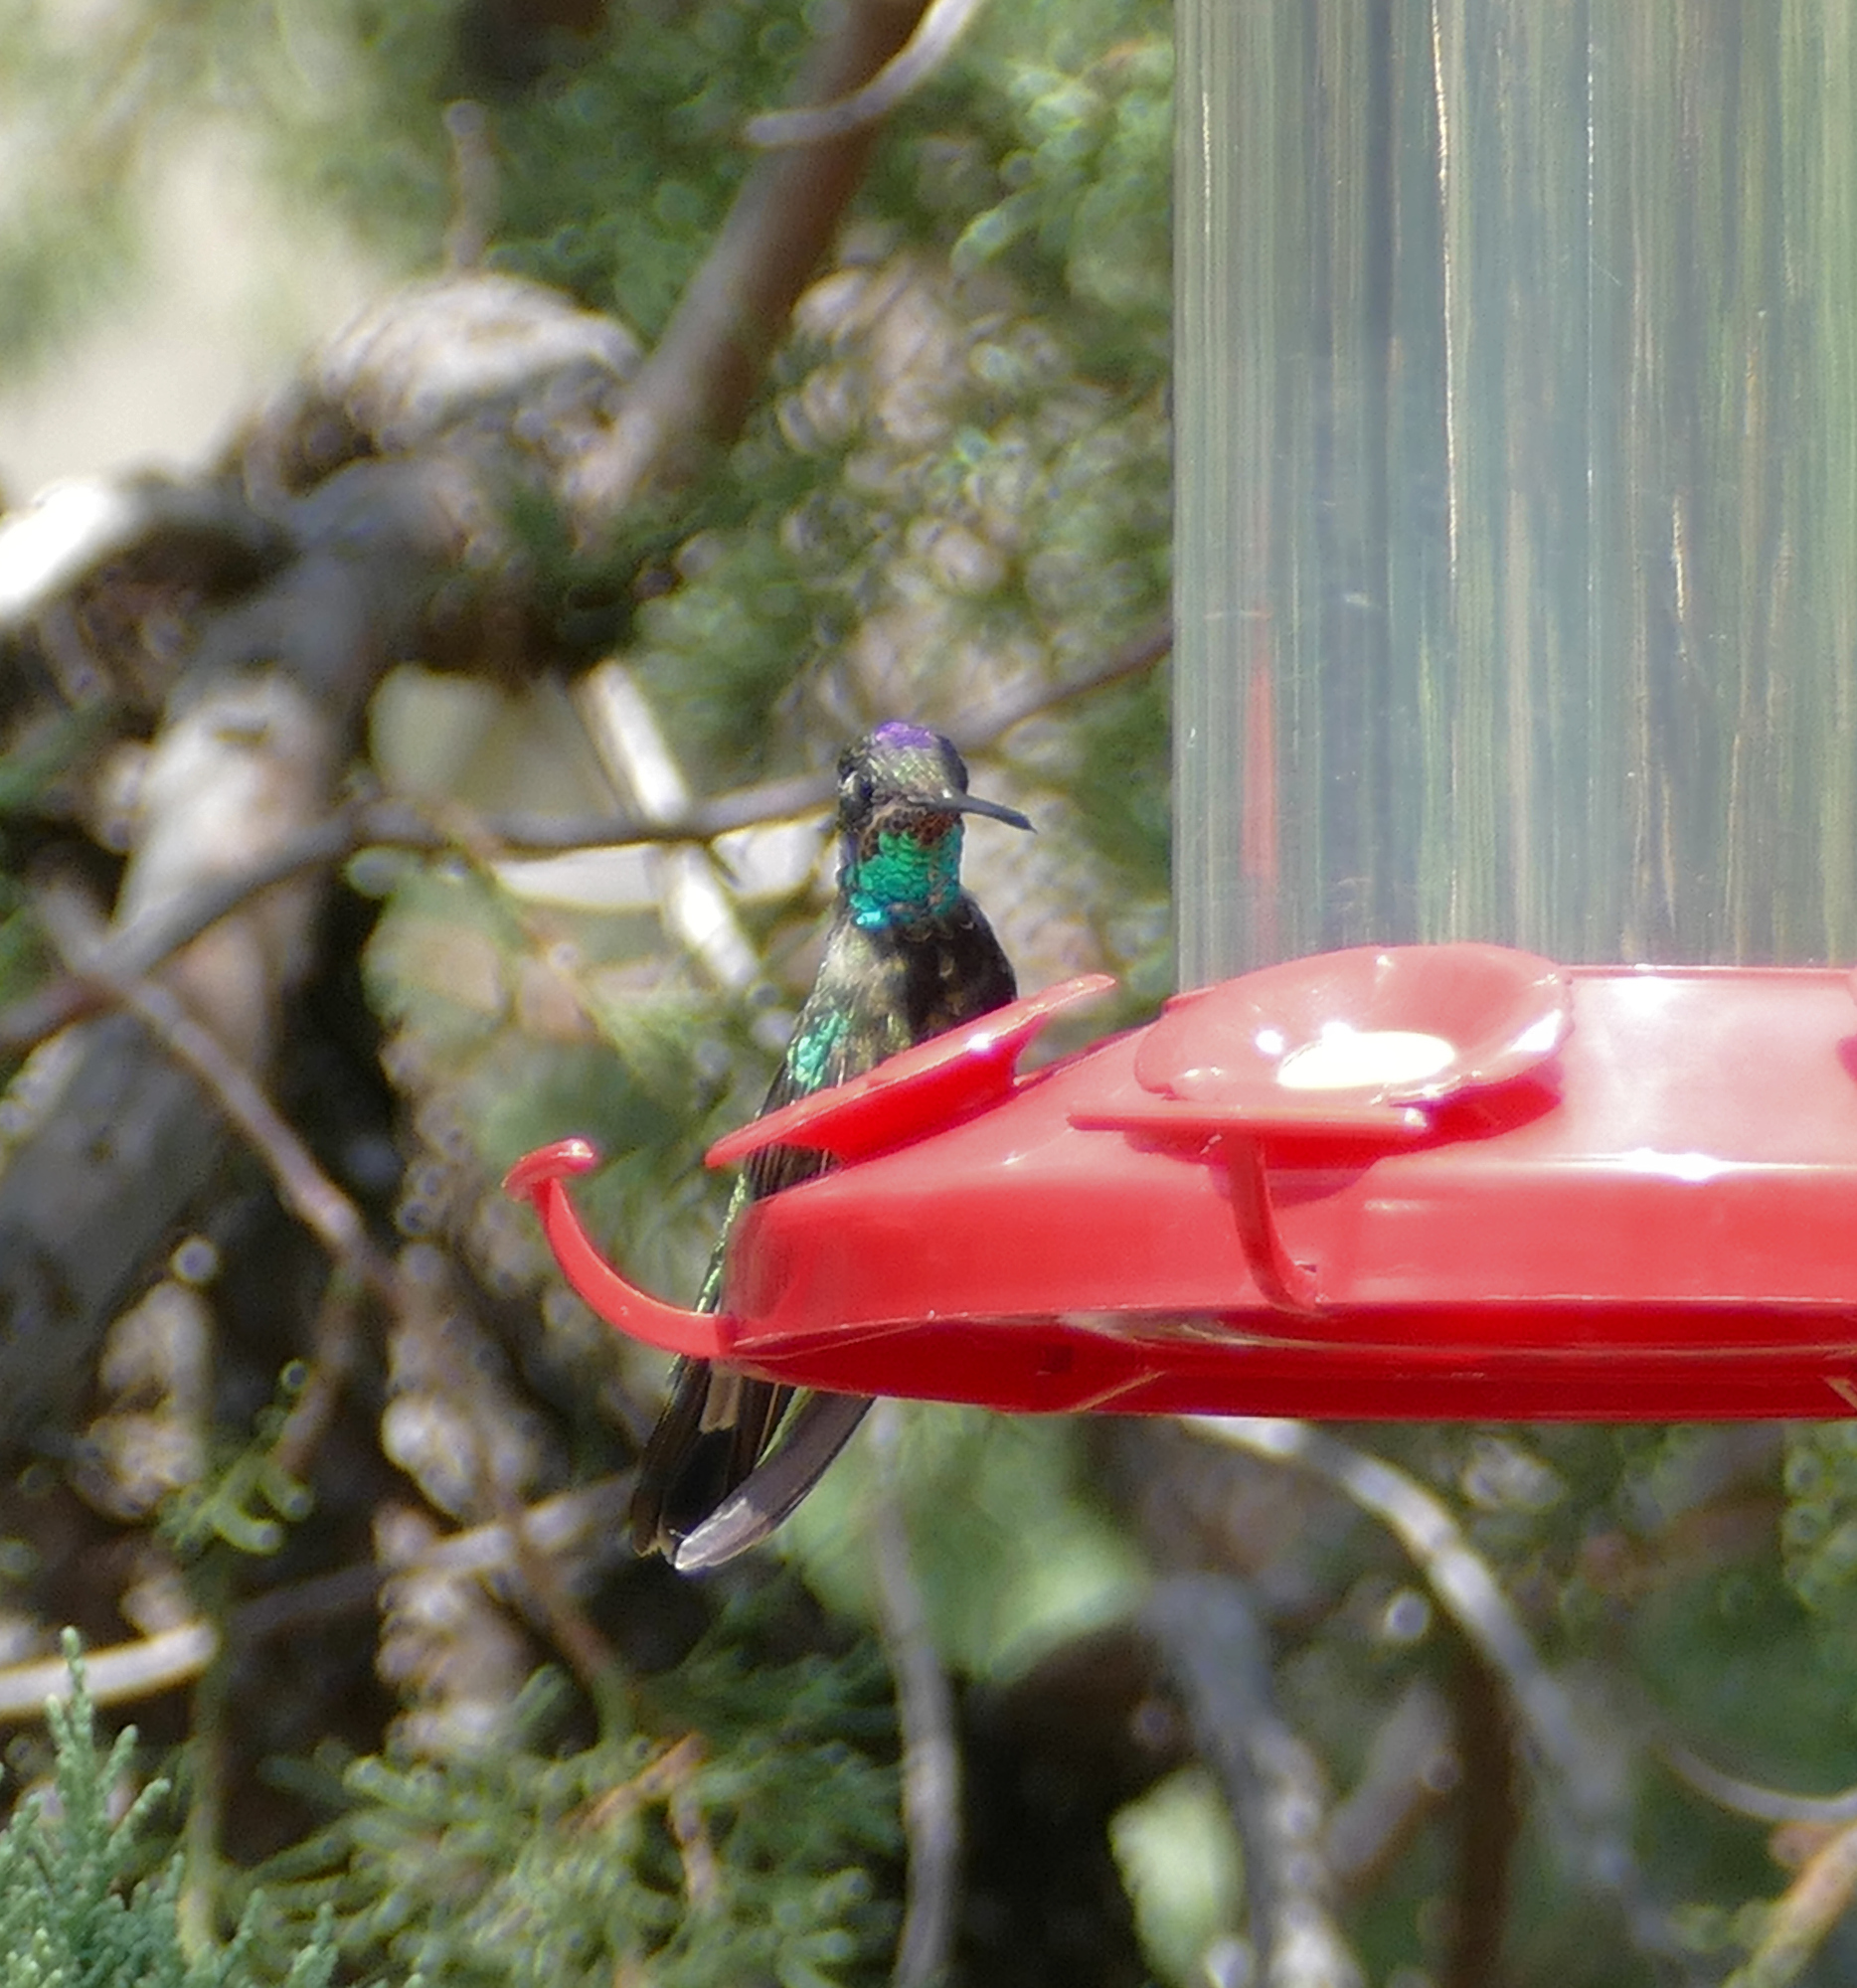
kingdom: Animalia
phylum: Chordata
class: Aves
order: Apodiformes
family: Trochilidae
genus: Eugenes
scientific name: Eugenes fulgens
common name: Magnificent hummingbird
